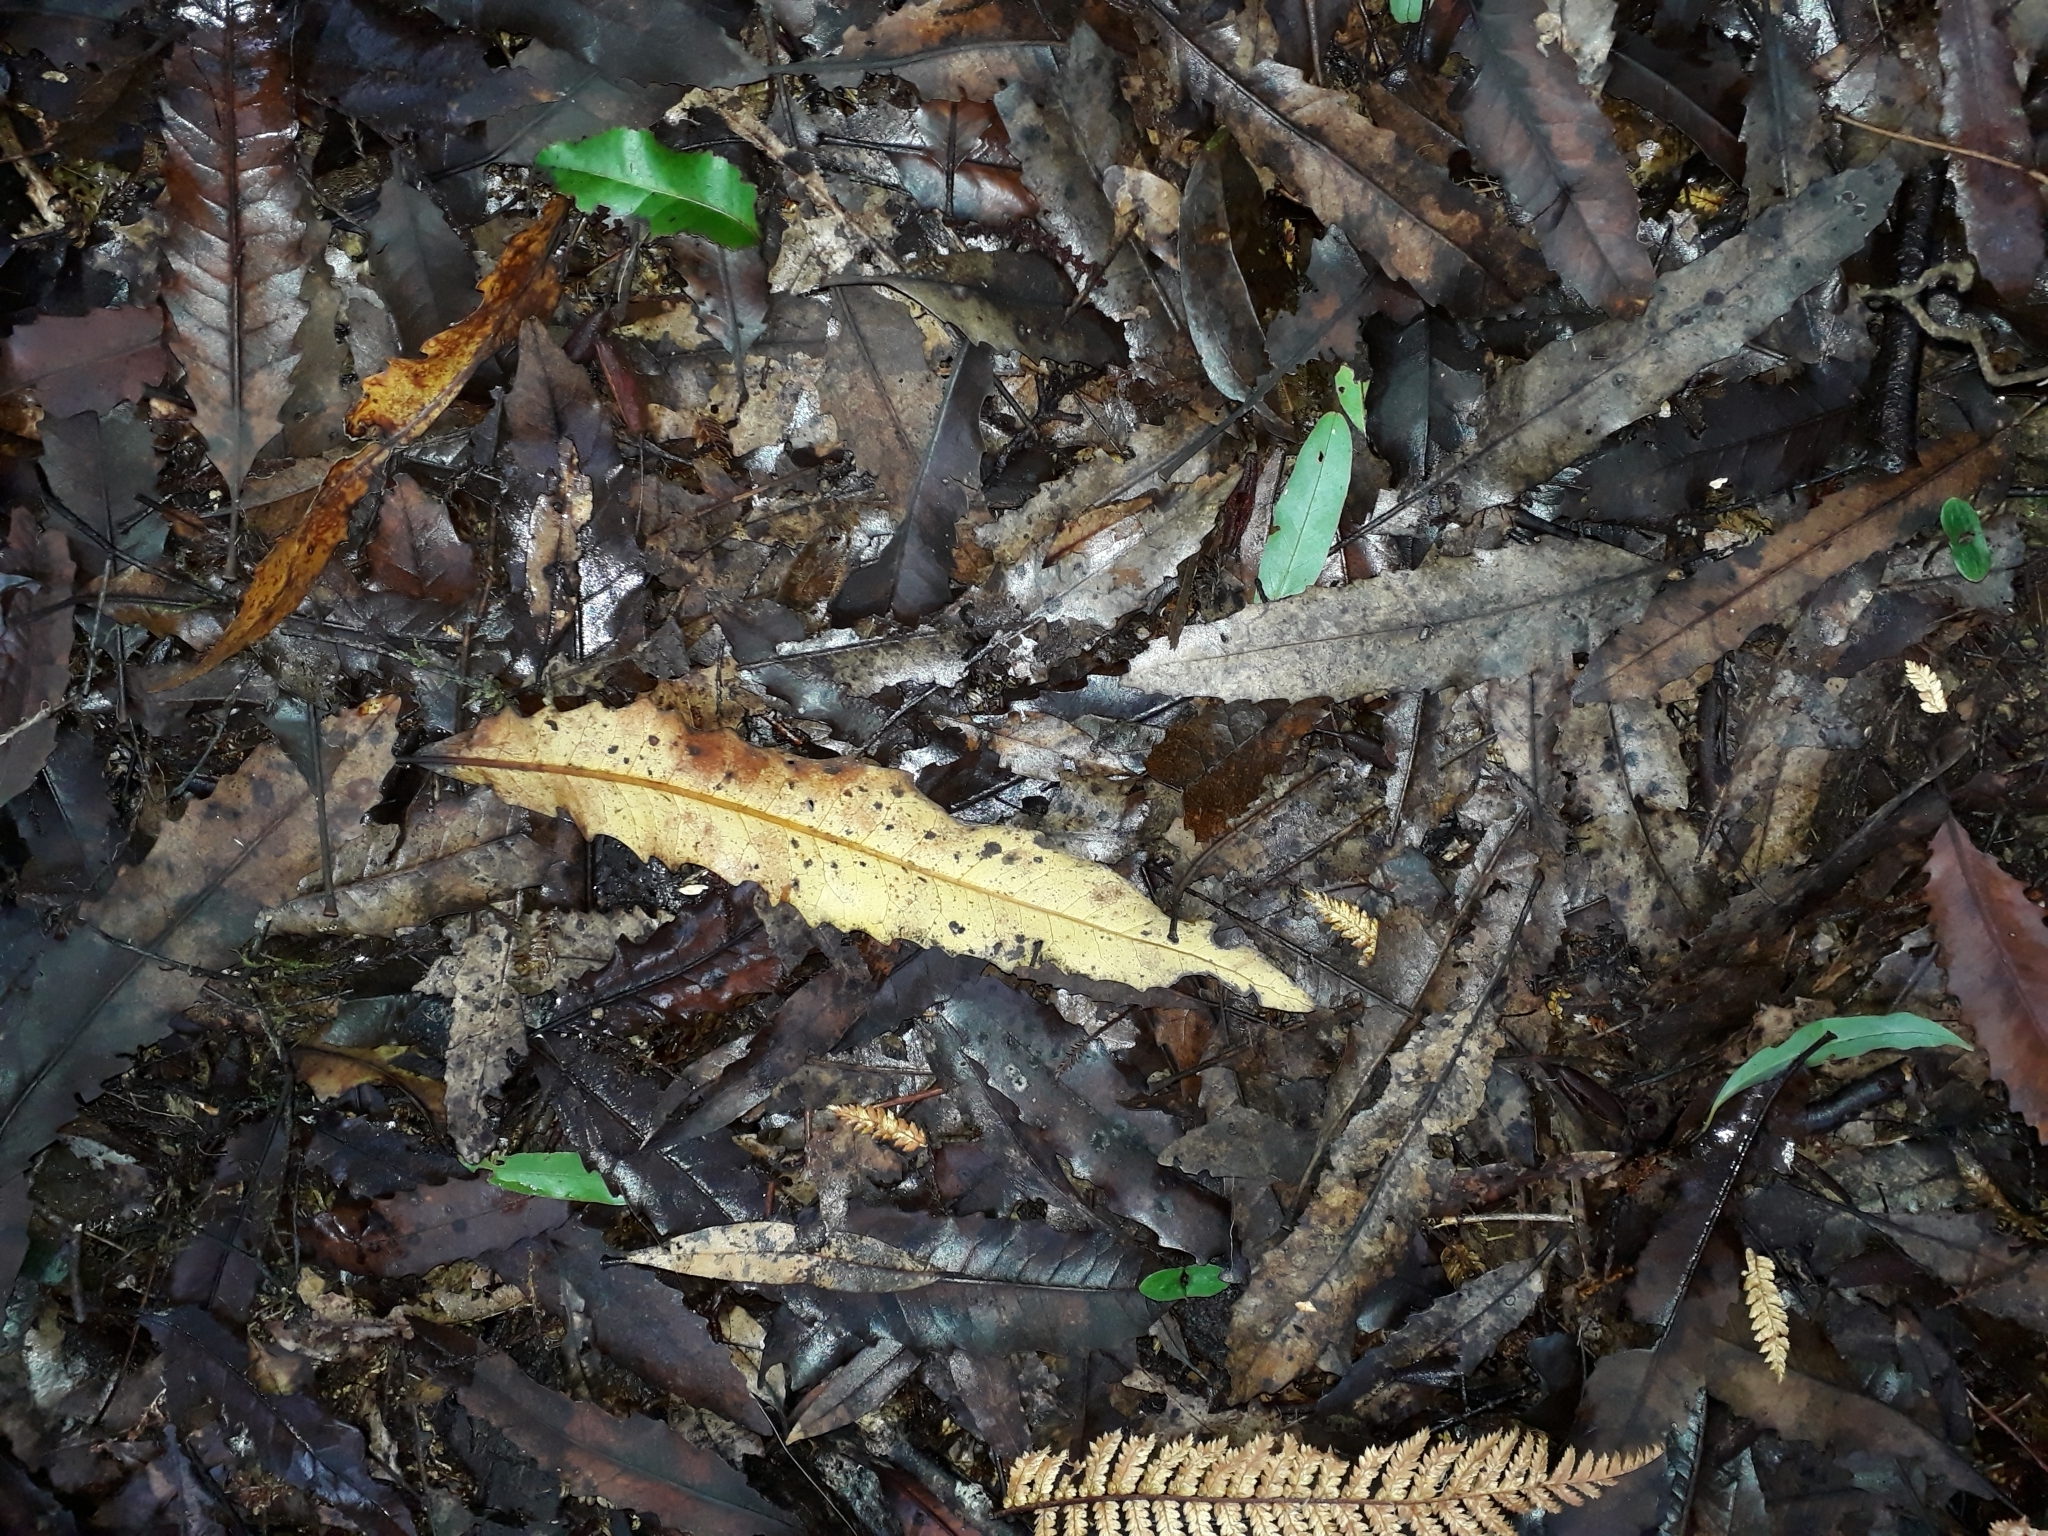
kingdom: Plantae
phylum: Tracheophyta
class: Magnoliopsida
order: Proteales
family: Proteaceae
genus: Knightia
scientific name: Knightia excelsa
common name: New zealand-honeysuckle
